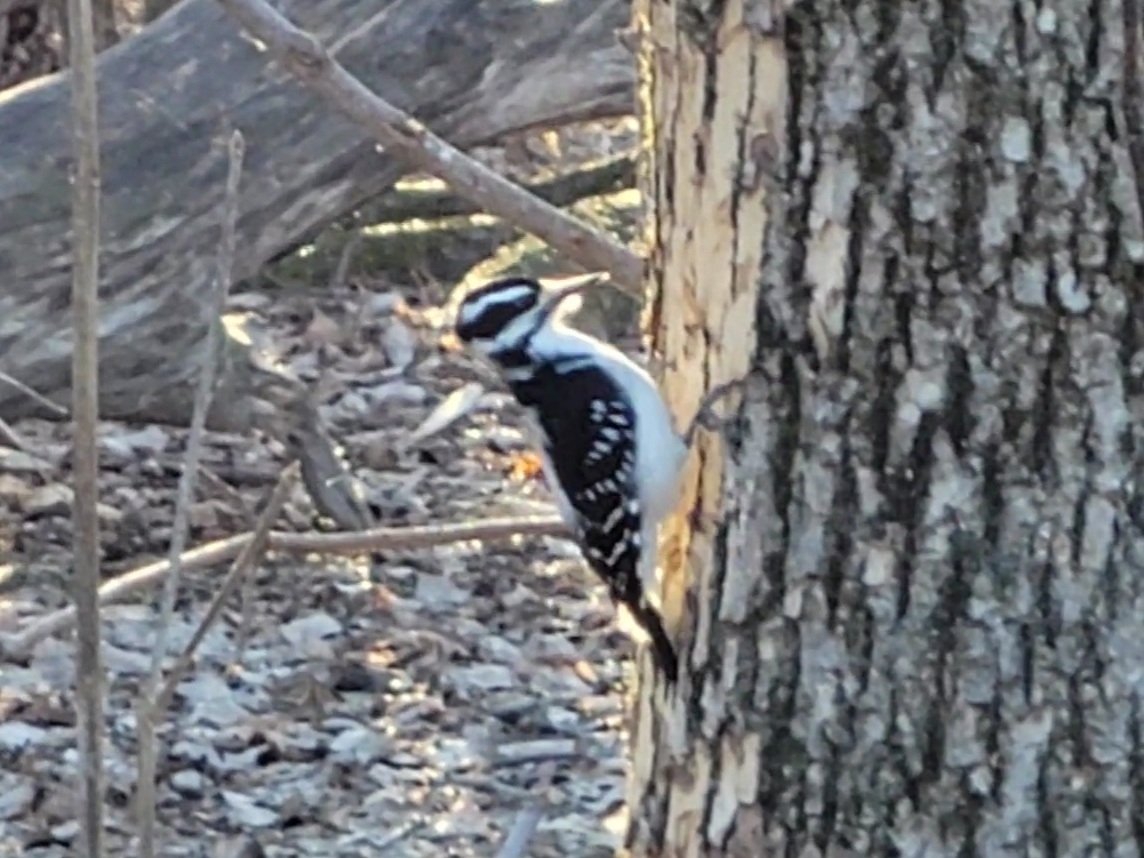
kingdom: Animalia
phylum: Chordata
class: Aves
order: Piciformes
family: Picidae
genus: Leuconotopicus
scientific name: Leuconotopicus villosus
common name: Hairy woodpecker
